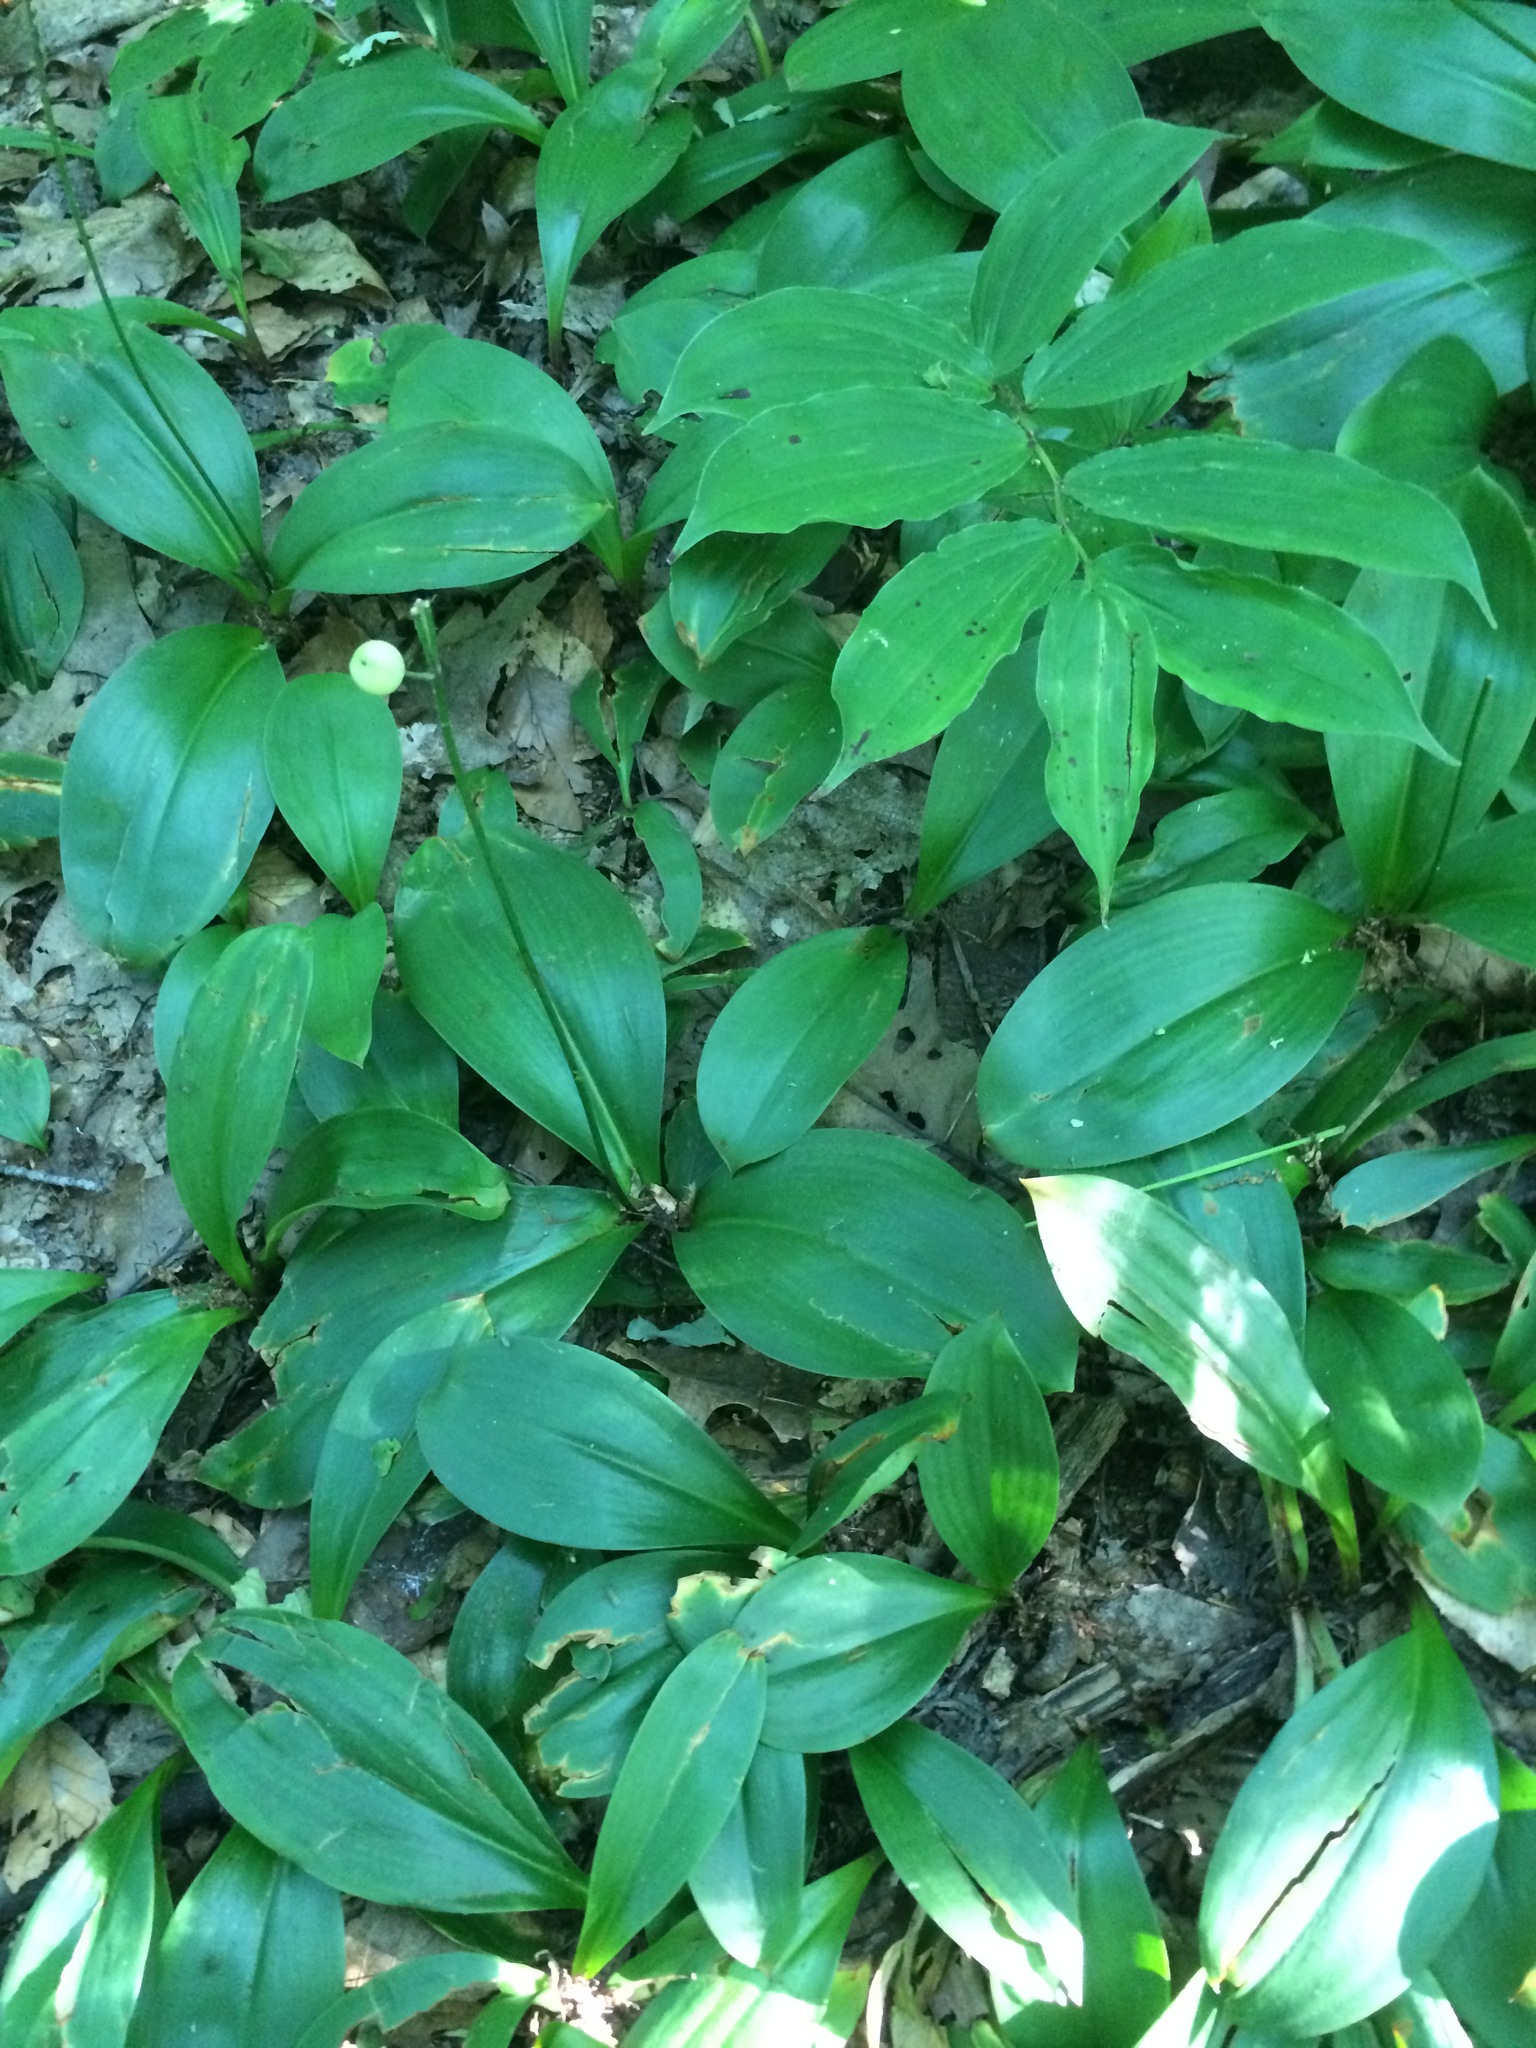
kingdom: Plantae
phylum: Tracheophyta
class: Liliopsida
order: Liliales
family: Liliaceae
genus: Clintonia
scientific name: Clintonia borealis
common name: Yellow clintonia
